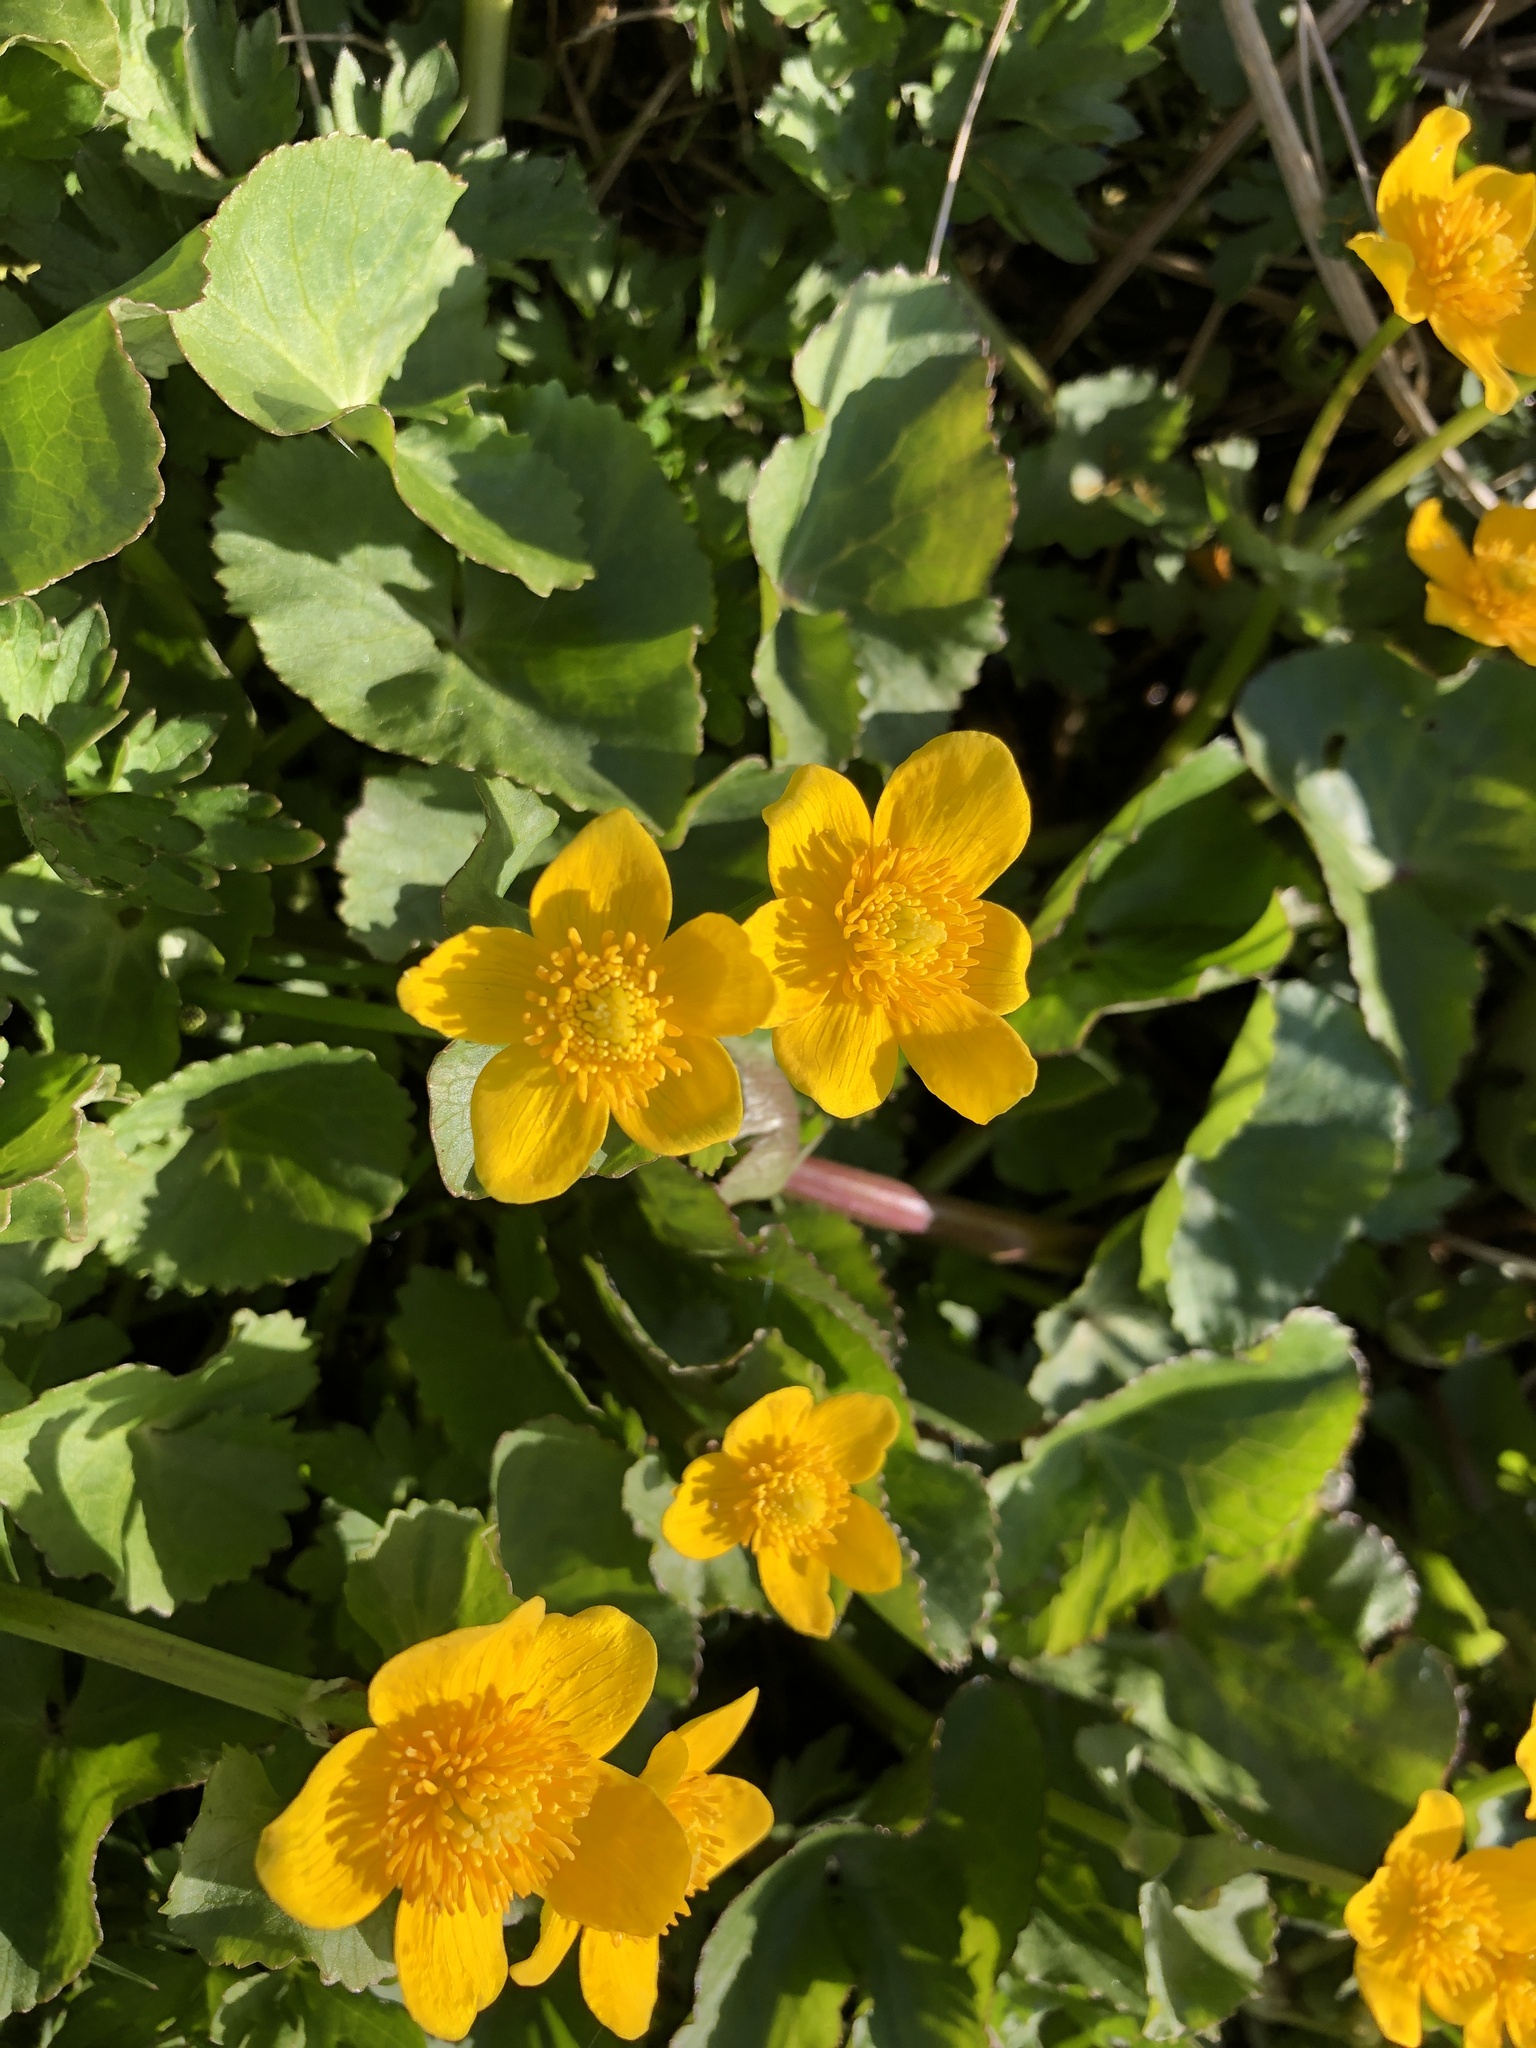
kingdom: Plantae
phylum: Tracheophyta
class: Magnoliopsida
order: Ranunculales
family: Ranunculaceae
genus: Caltha
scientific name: Caltha palustris
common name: Marsh marigold
